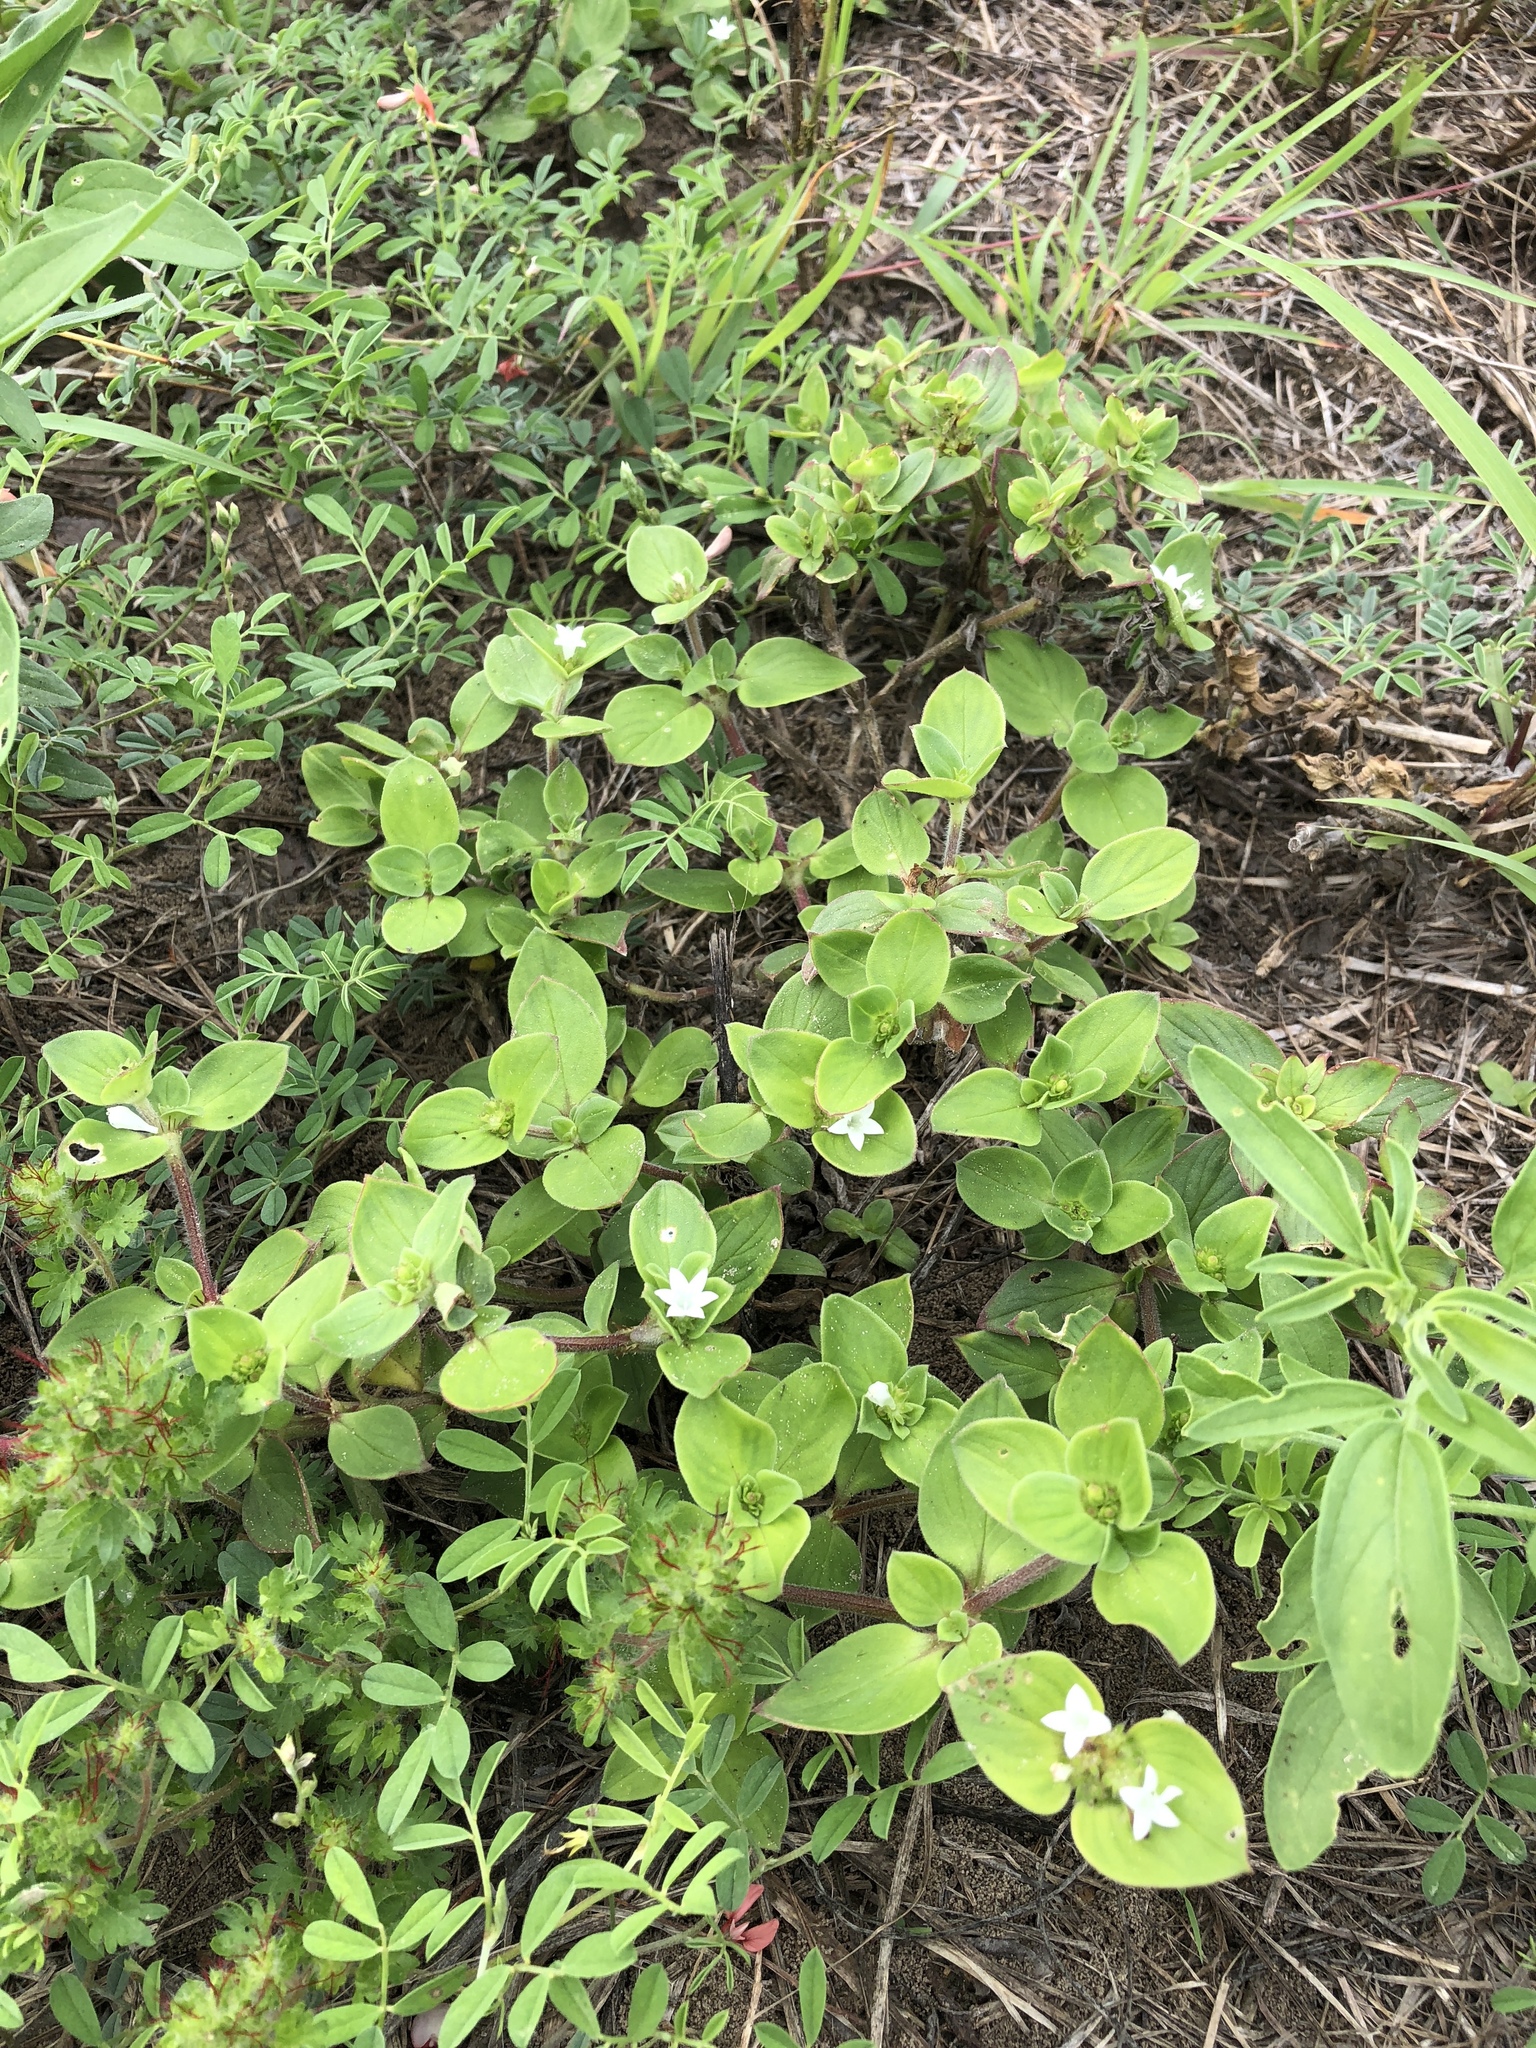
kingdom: Plantae
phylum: Tracheophyta
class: Magnoliopsida
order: Gentianales
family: Rubiaceae
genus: Richardia
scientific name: Richardia brasiliensis
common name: Tropical mexican clover
